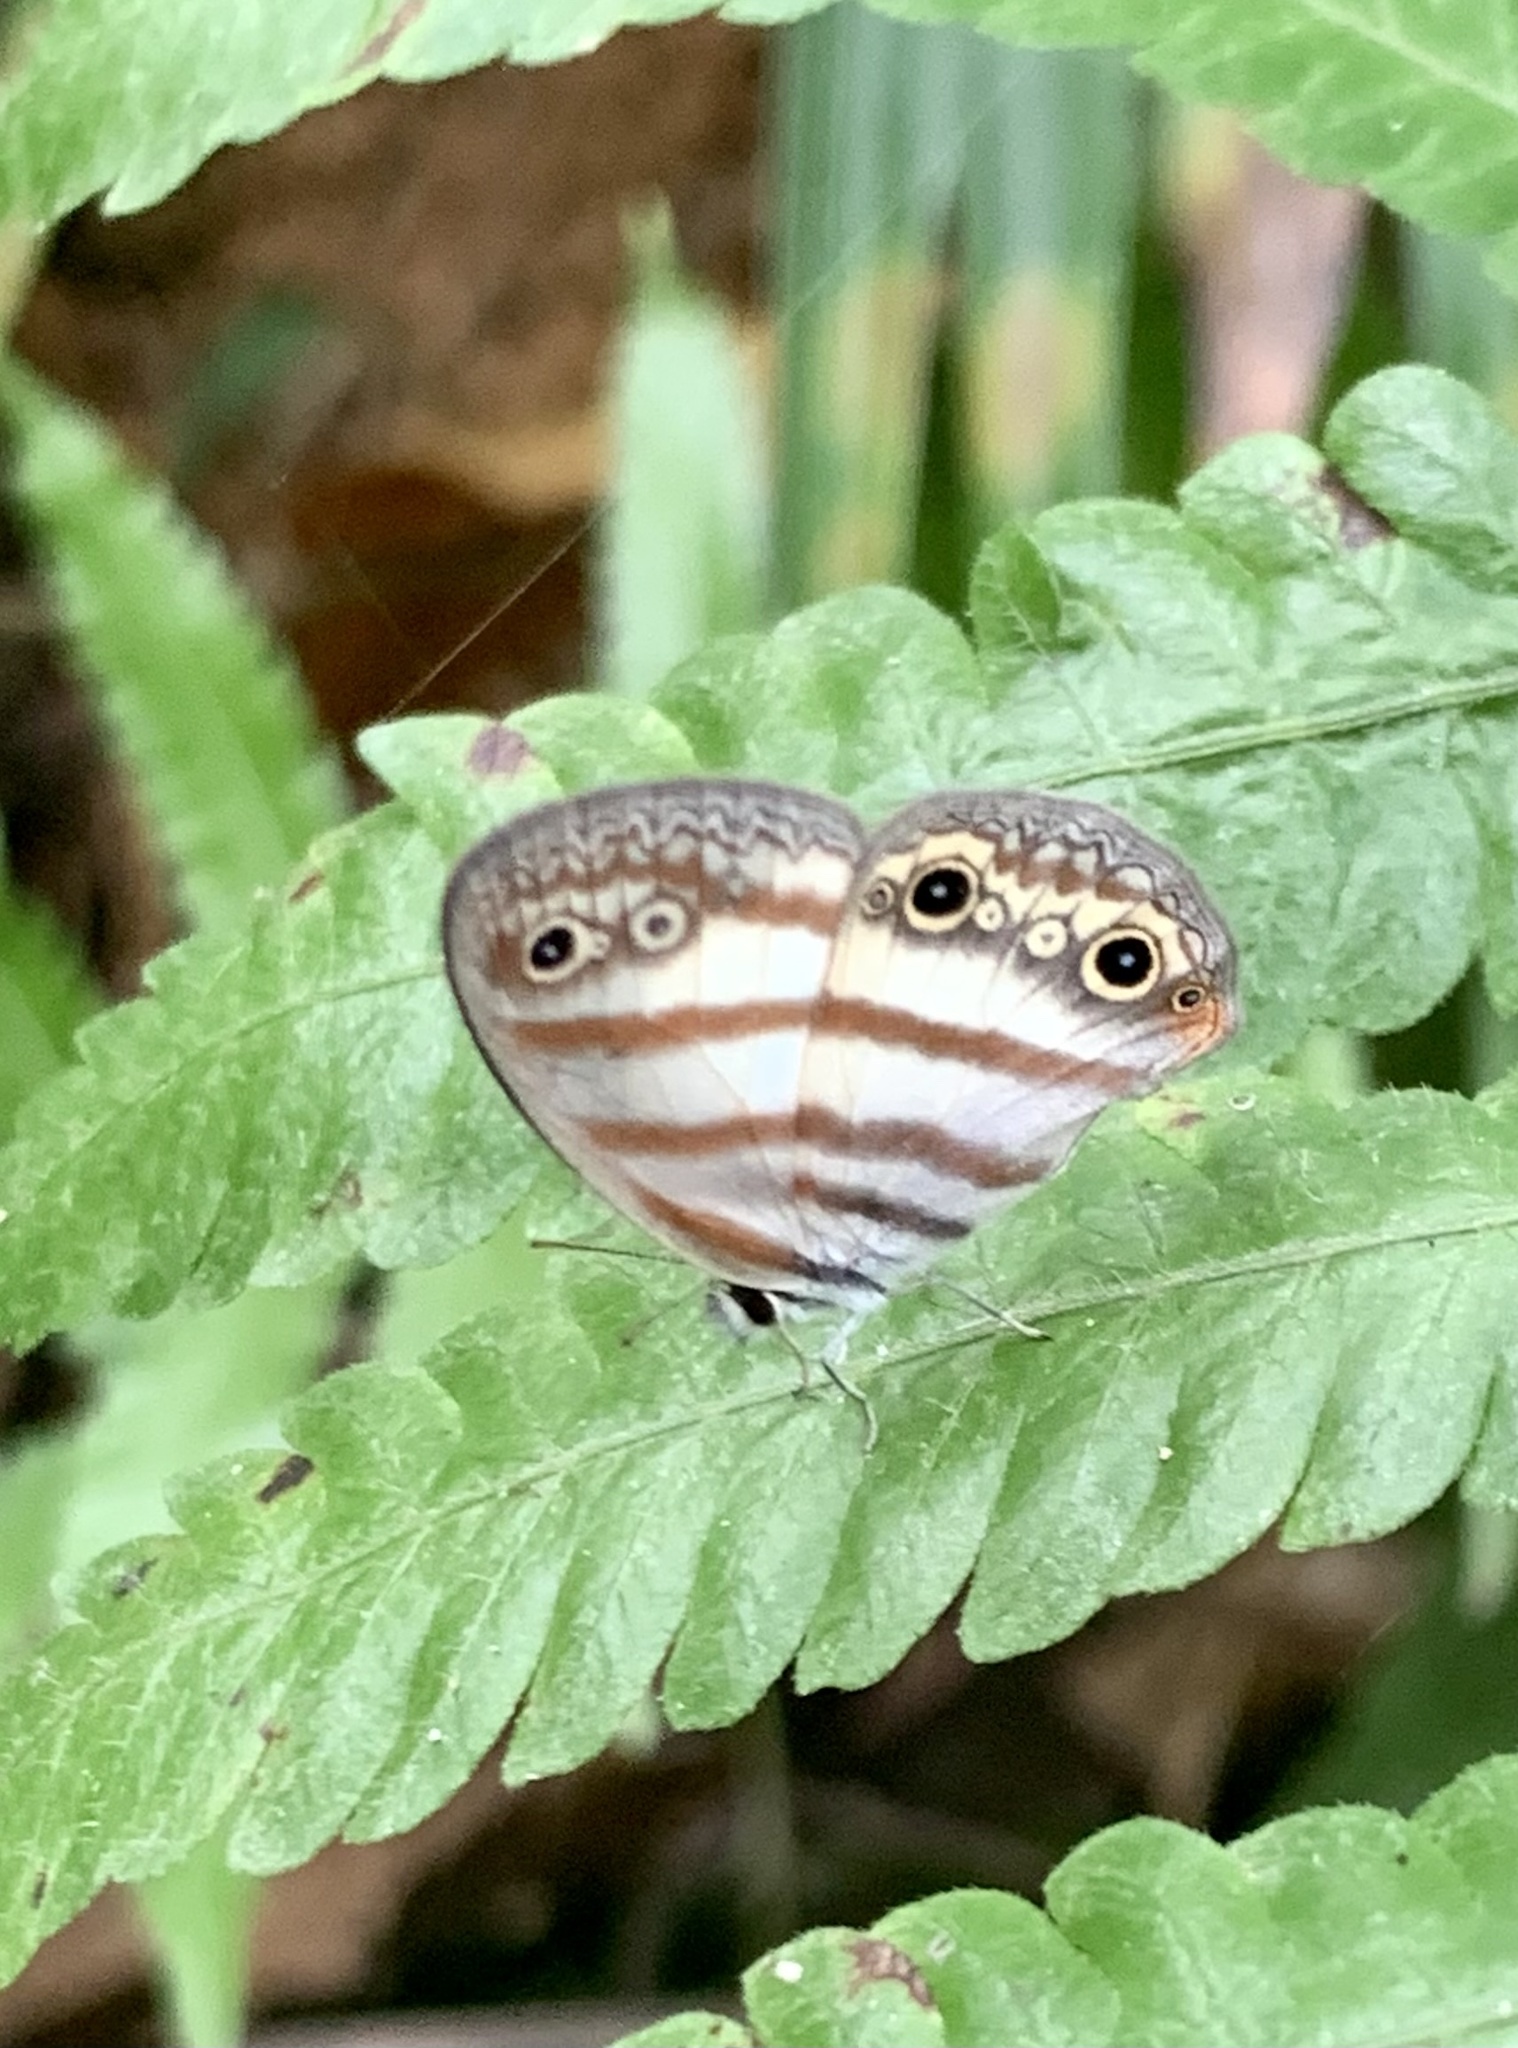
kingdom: Animalia
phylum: Arthropoda
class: Insecta
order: Lepidoptera
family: Nymphalidae
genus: Euptychia
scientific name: Euptychia mollina
